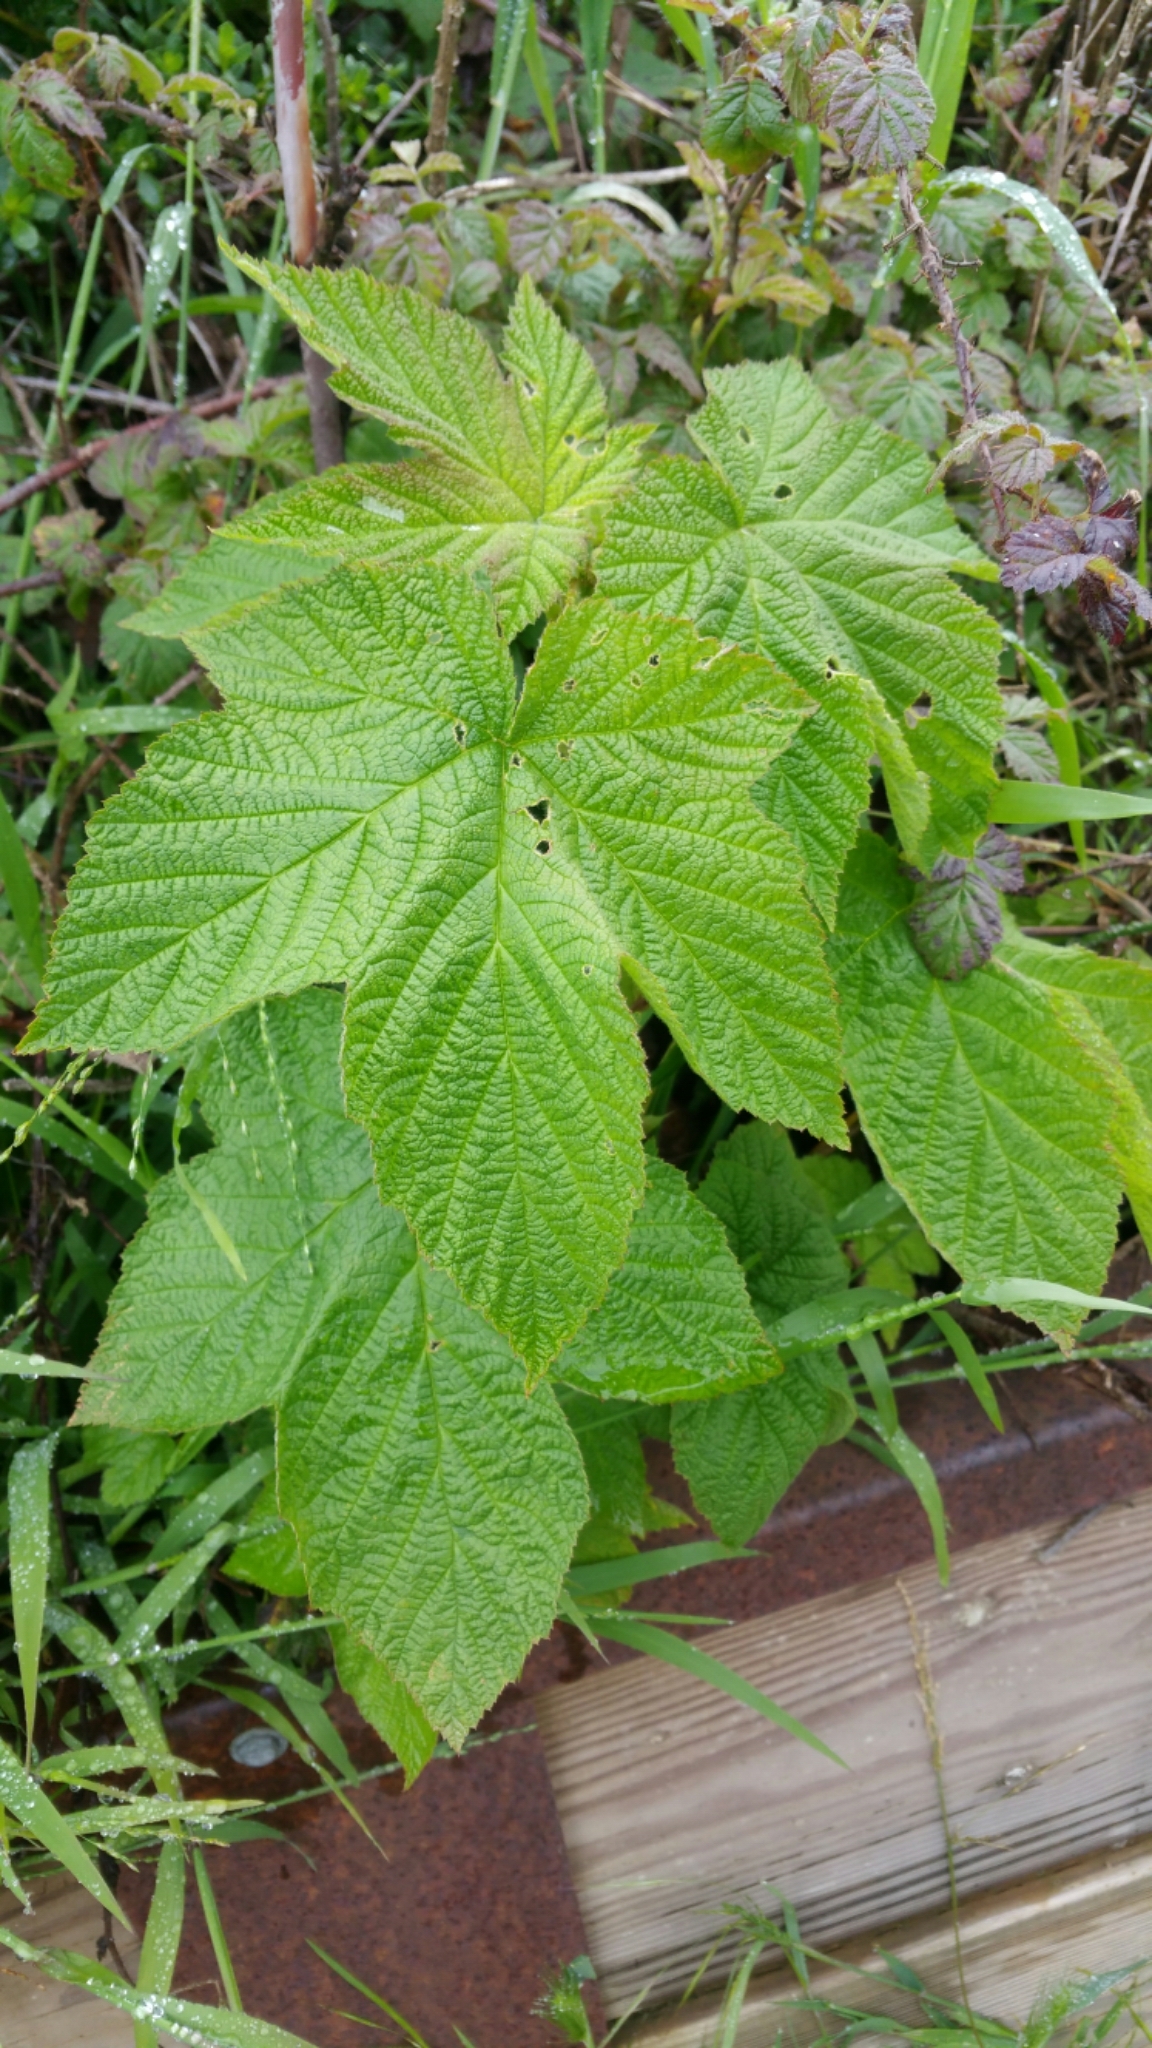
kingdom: Plantae
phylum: Tracheophyta
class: Magnoliopsida
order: Rosales
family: Rosaceae
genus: Rubus
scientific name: Rubus parviflorus
